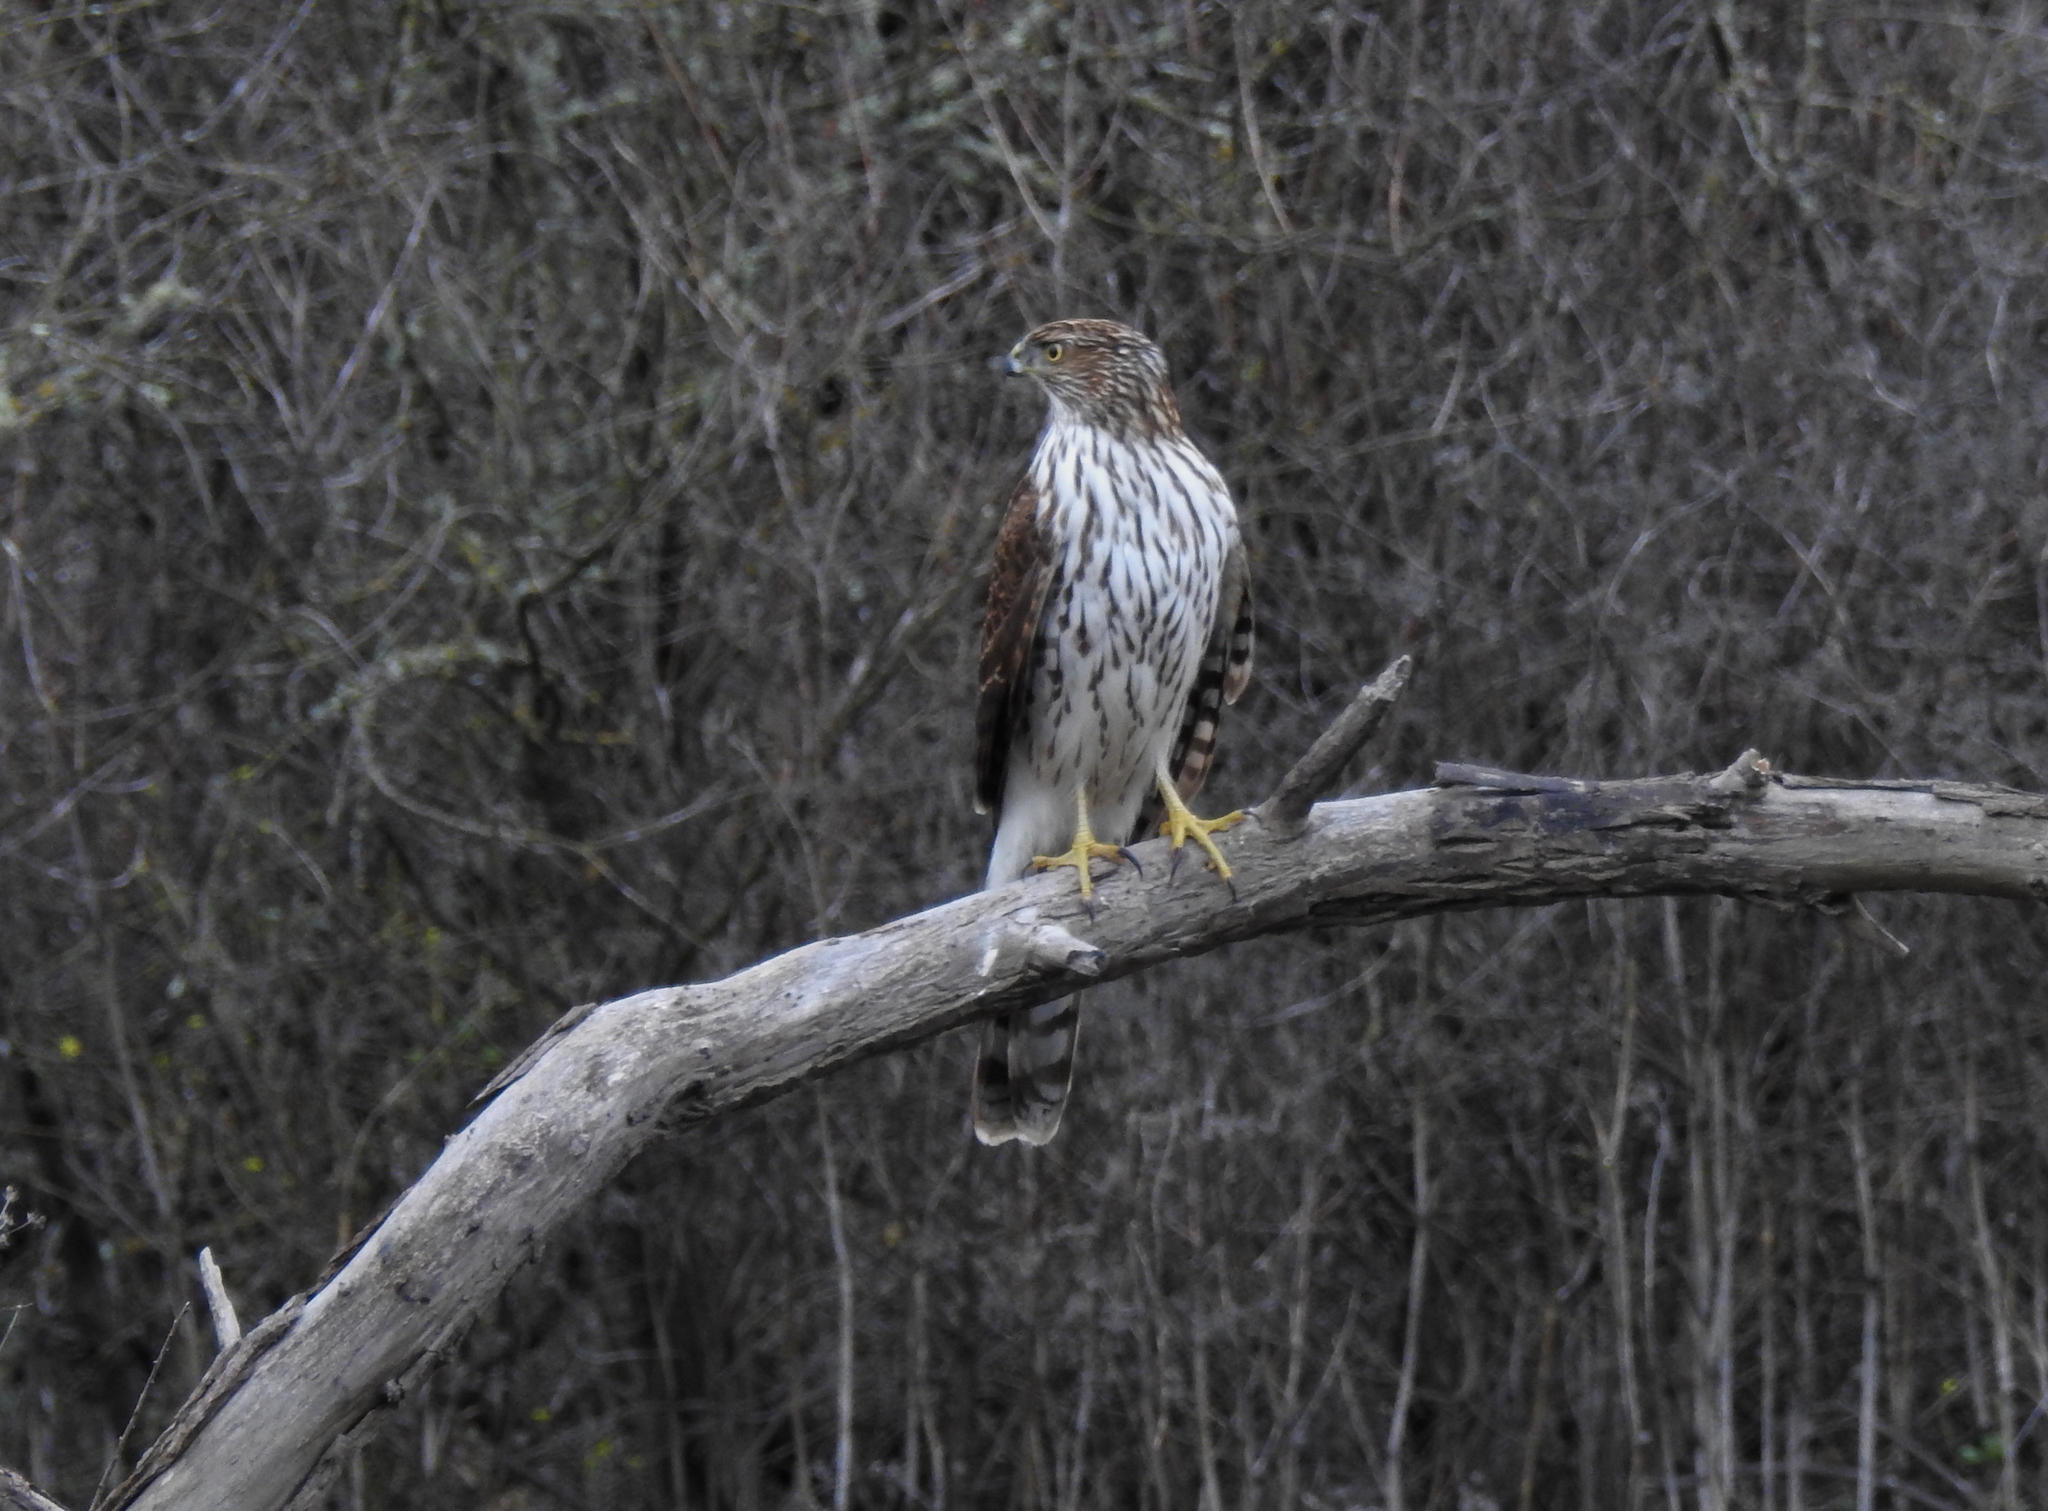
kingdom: Animalia
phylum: Chordata
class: Aves
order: Accipitriformes
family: Accipitridae
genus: Accipiter
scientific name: Accipiter cooperii
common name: Cooper's hawk
